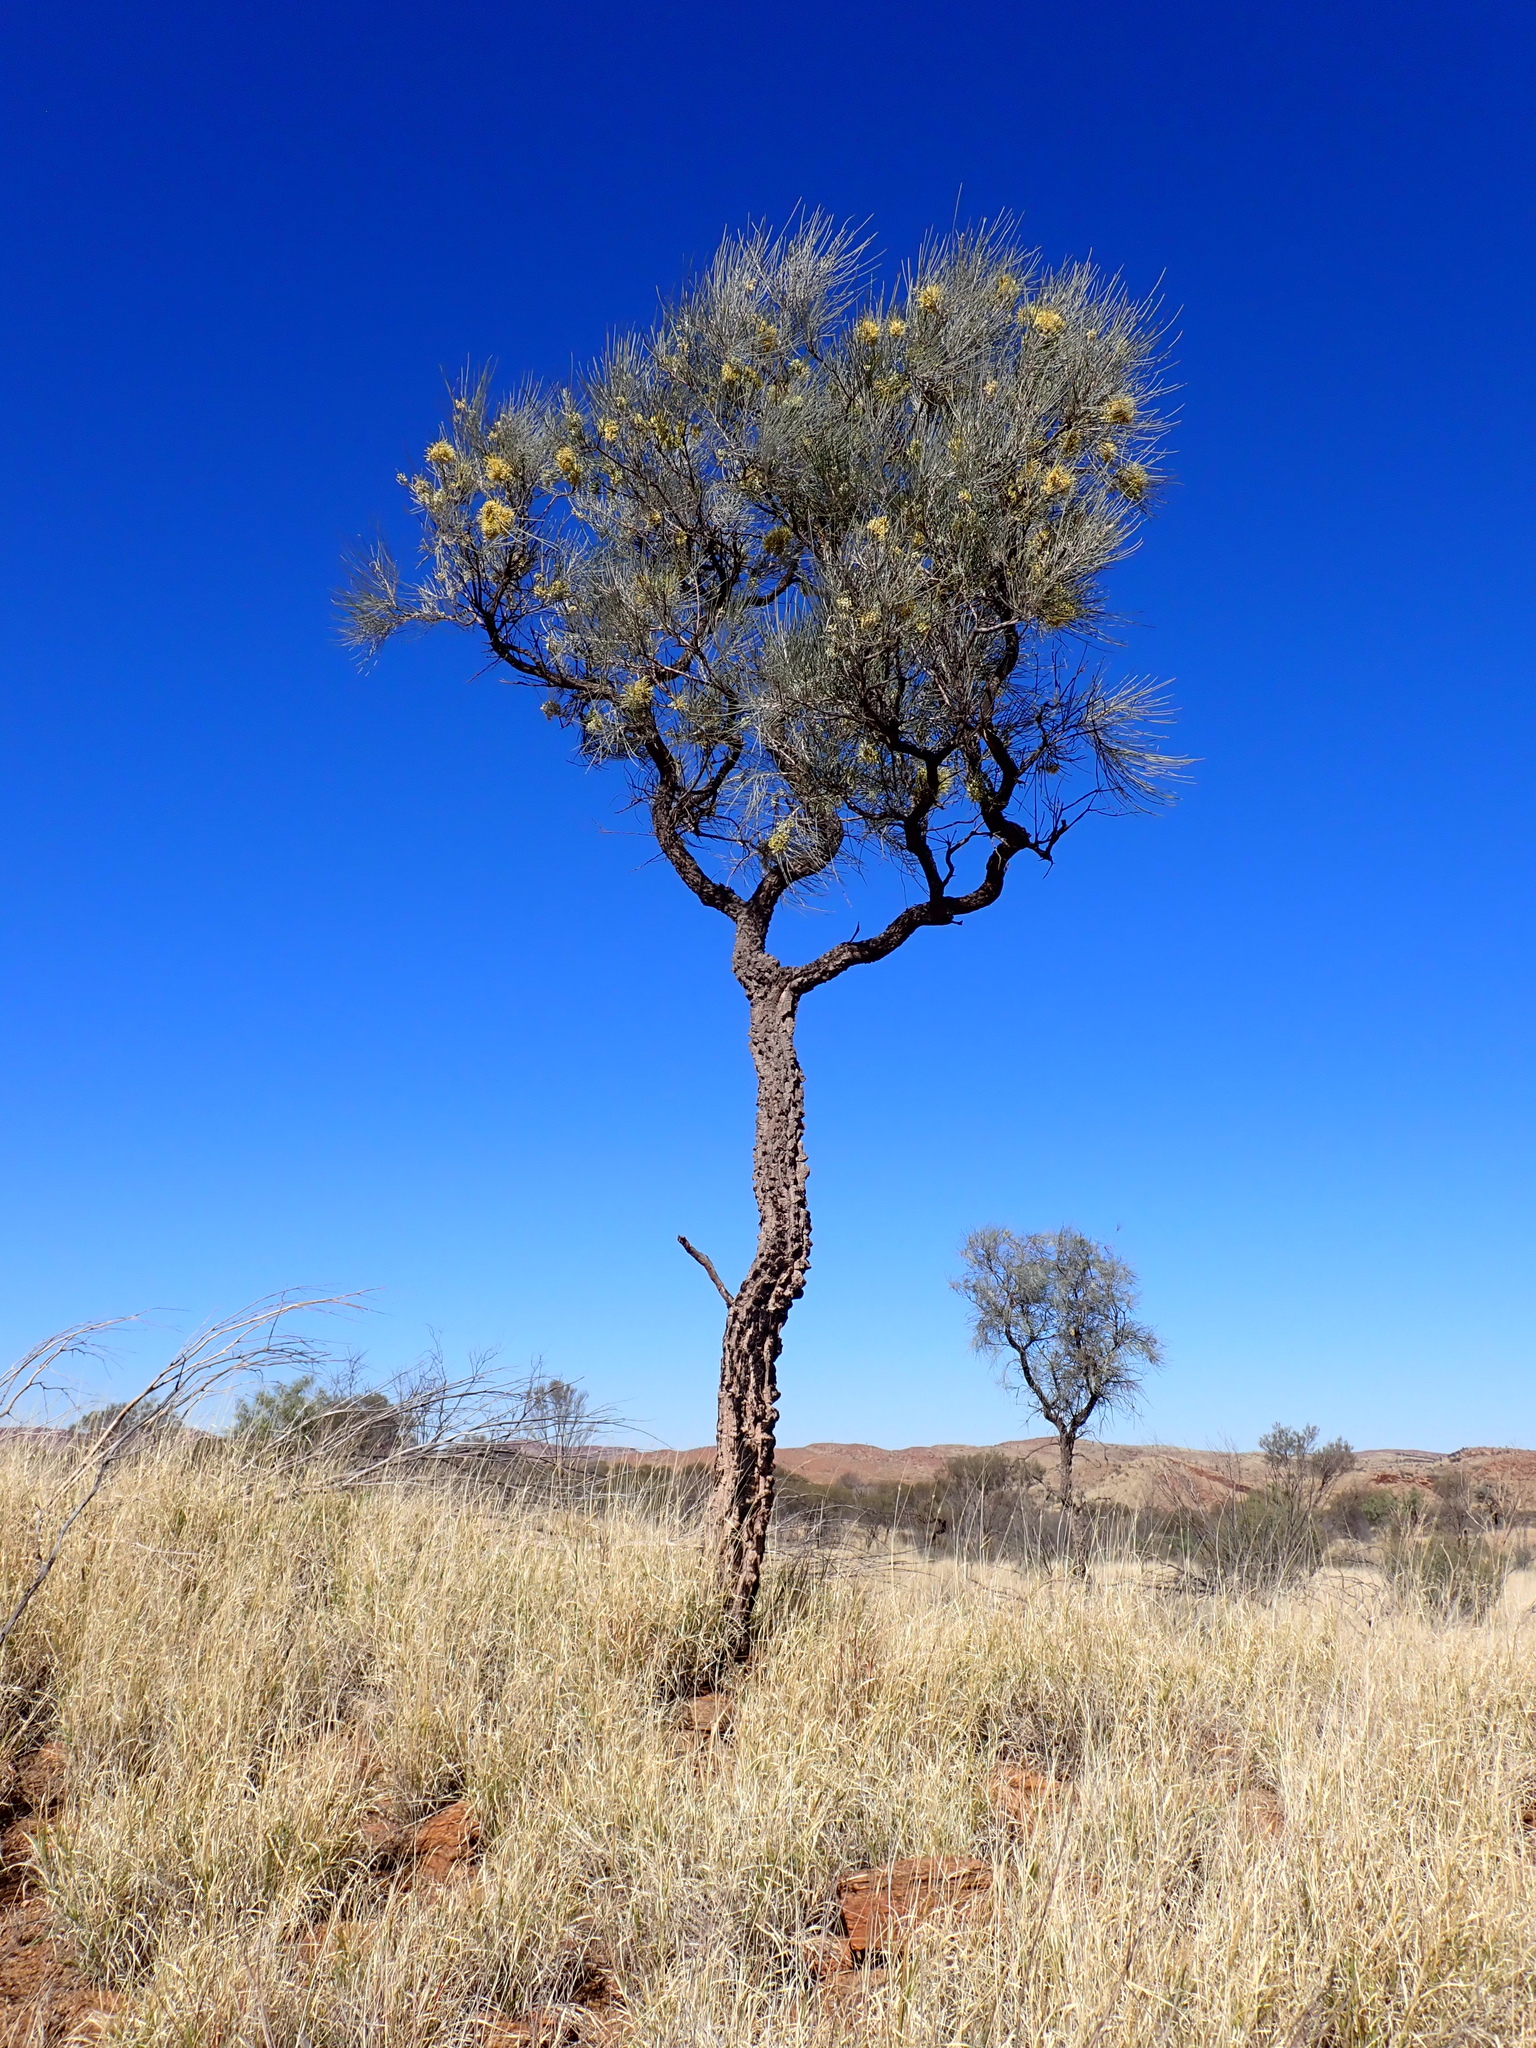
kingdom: Plantae
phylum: Tracheophyta
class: Magnoliopsida
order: Proteales
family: Proteaceae
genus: Hakea
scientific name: Hakea lorea
